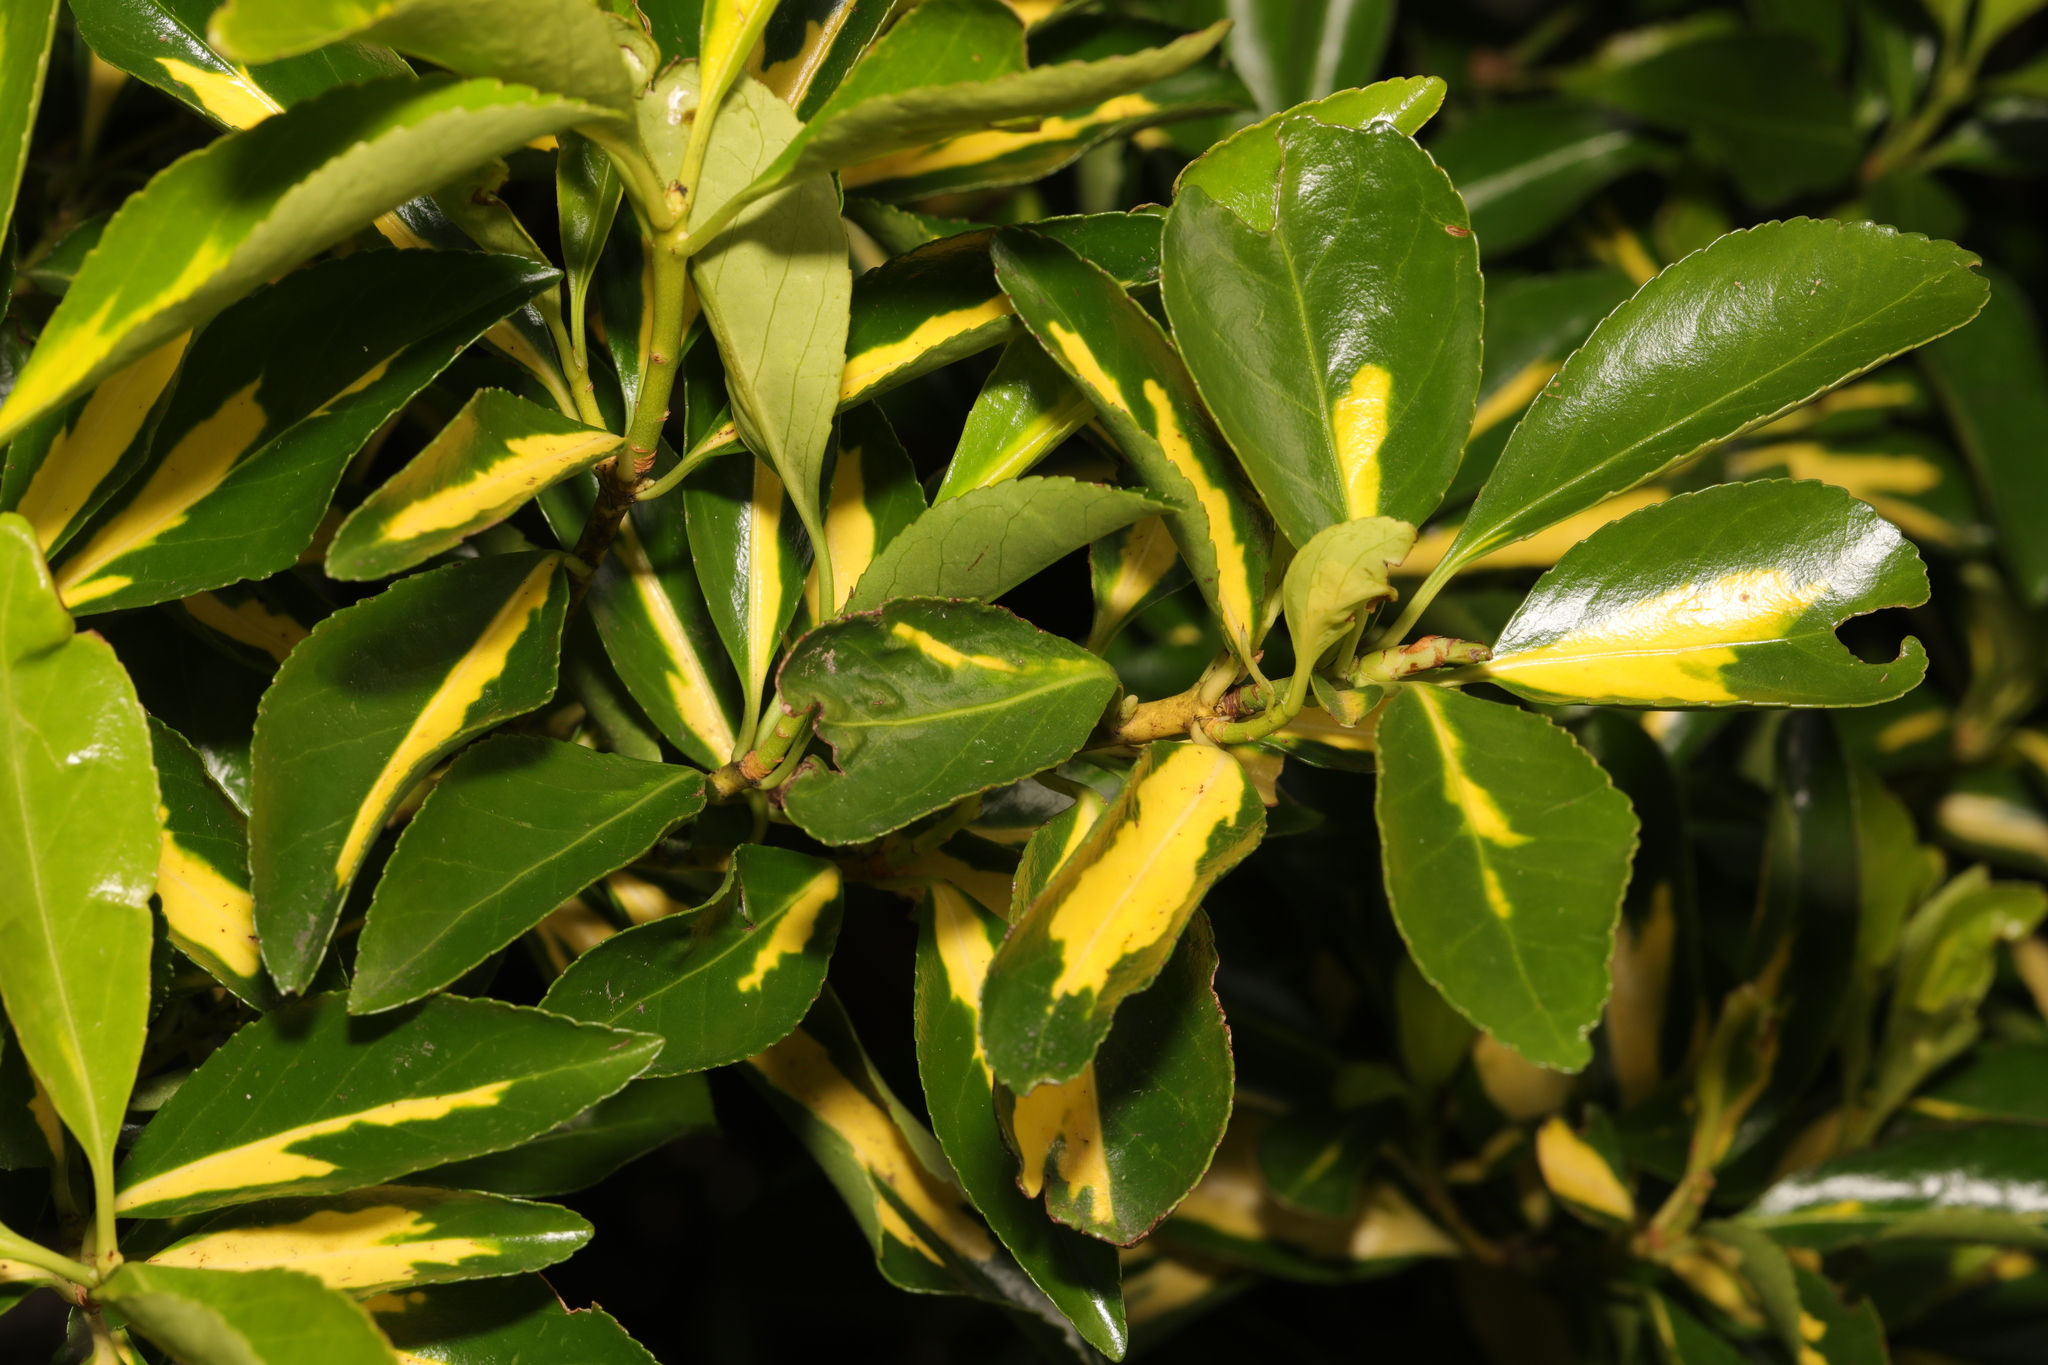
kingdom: Plantae
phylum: Tracheophyta
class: Magnoliopsida
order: Celastrales
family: Celastraceae
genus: Euonymus
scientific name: Euonymus japonicus
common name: Japanese spindletree
